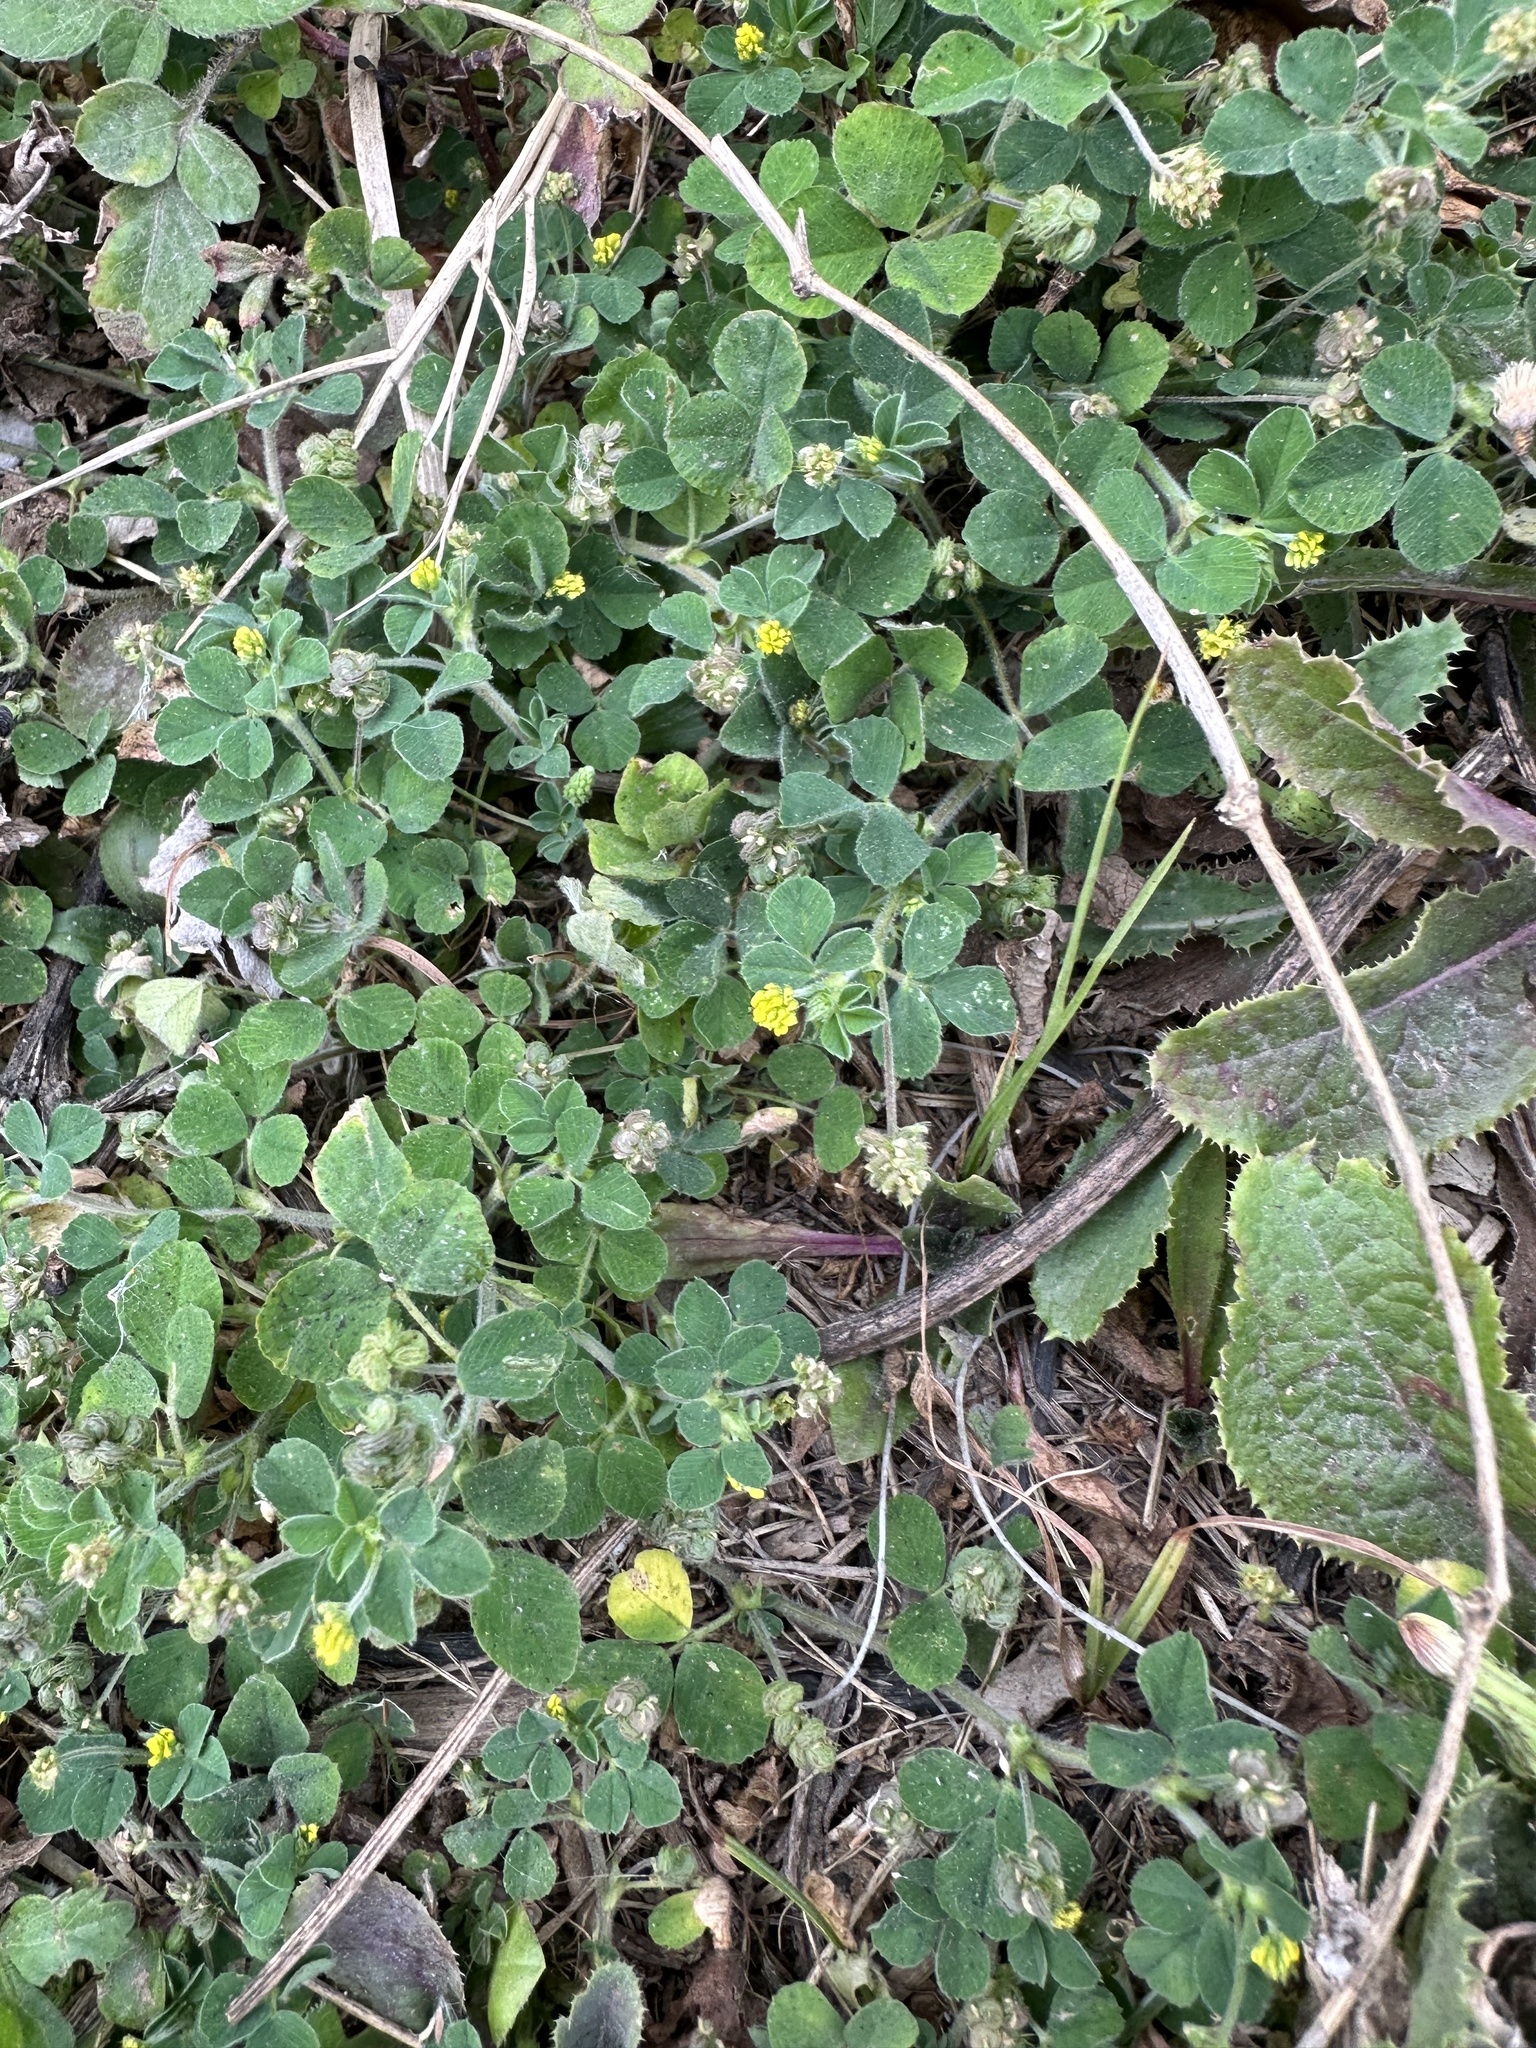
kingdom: Plantae
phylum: Tracheophyta
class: Magnoliopsida
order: Fabales
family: Fabaceae
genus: Medicago
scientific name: Medicago lupulina
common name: Black medick
